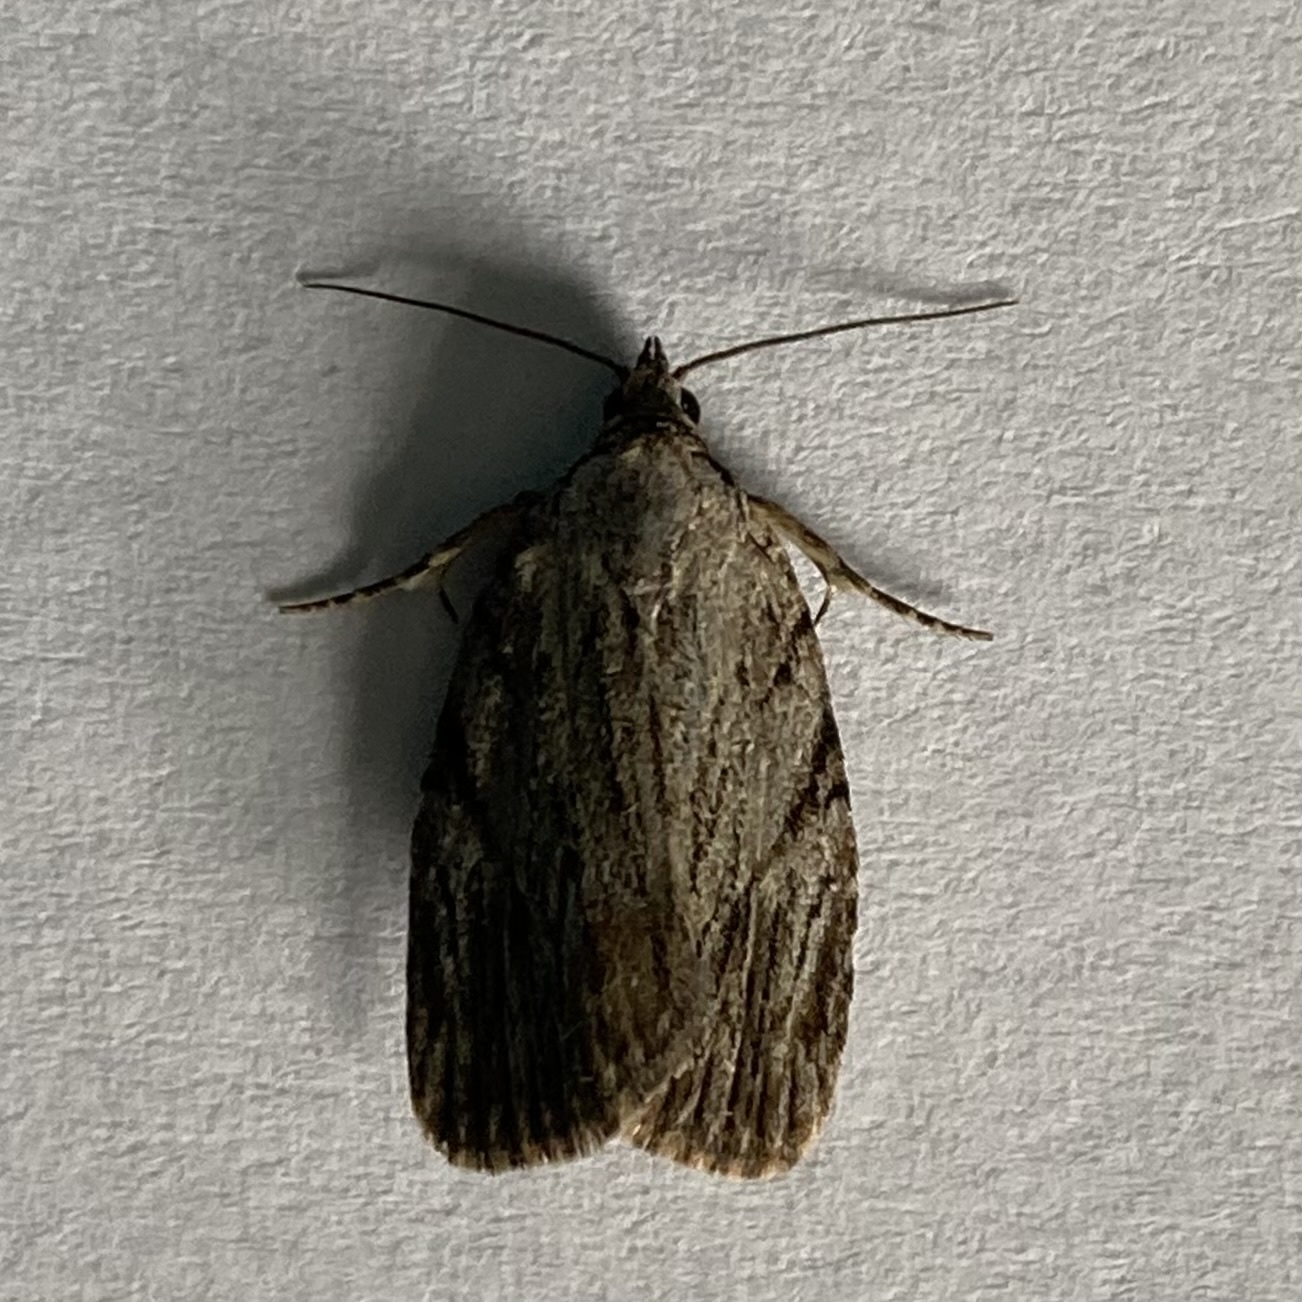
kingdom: Animalia
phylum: Arthropoda
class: Insecta
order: Lepidoptera
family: Noctuidae
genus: Balsa
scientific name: Balsa tristrigella
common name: Three-lined balsa moth
